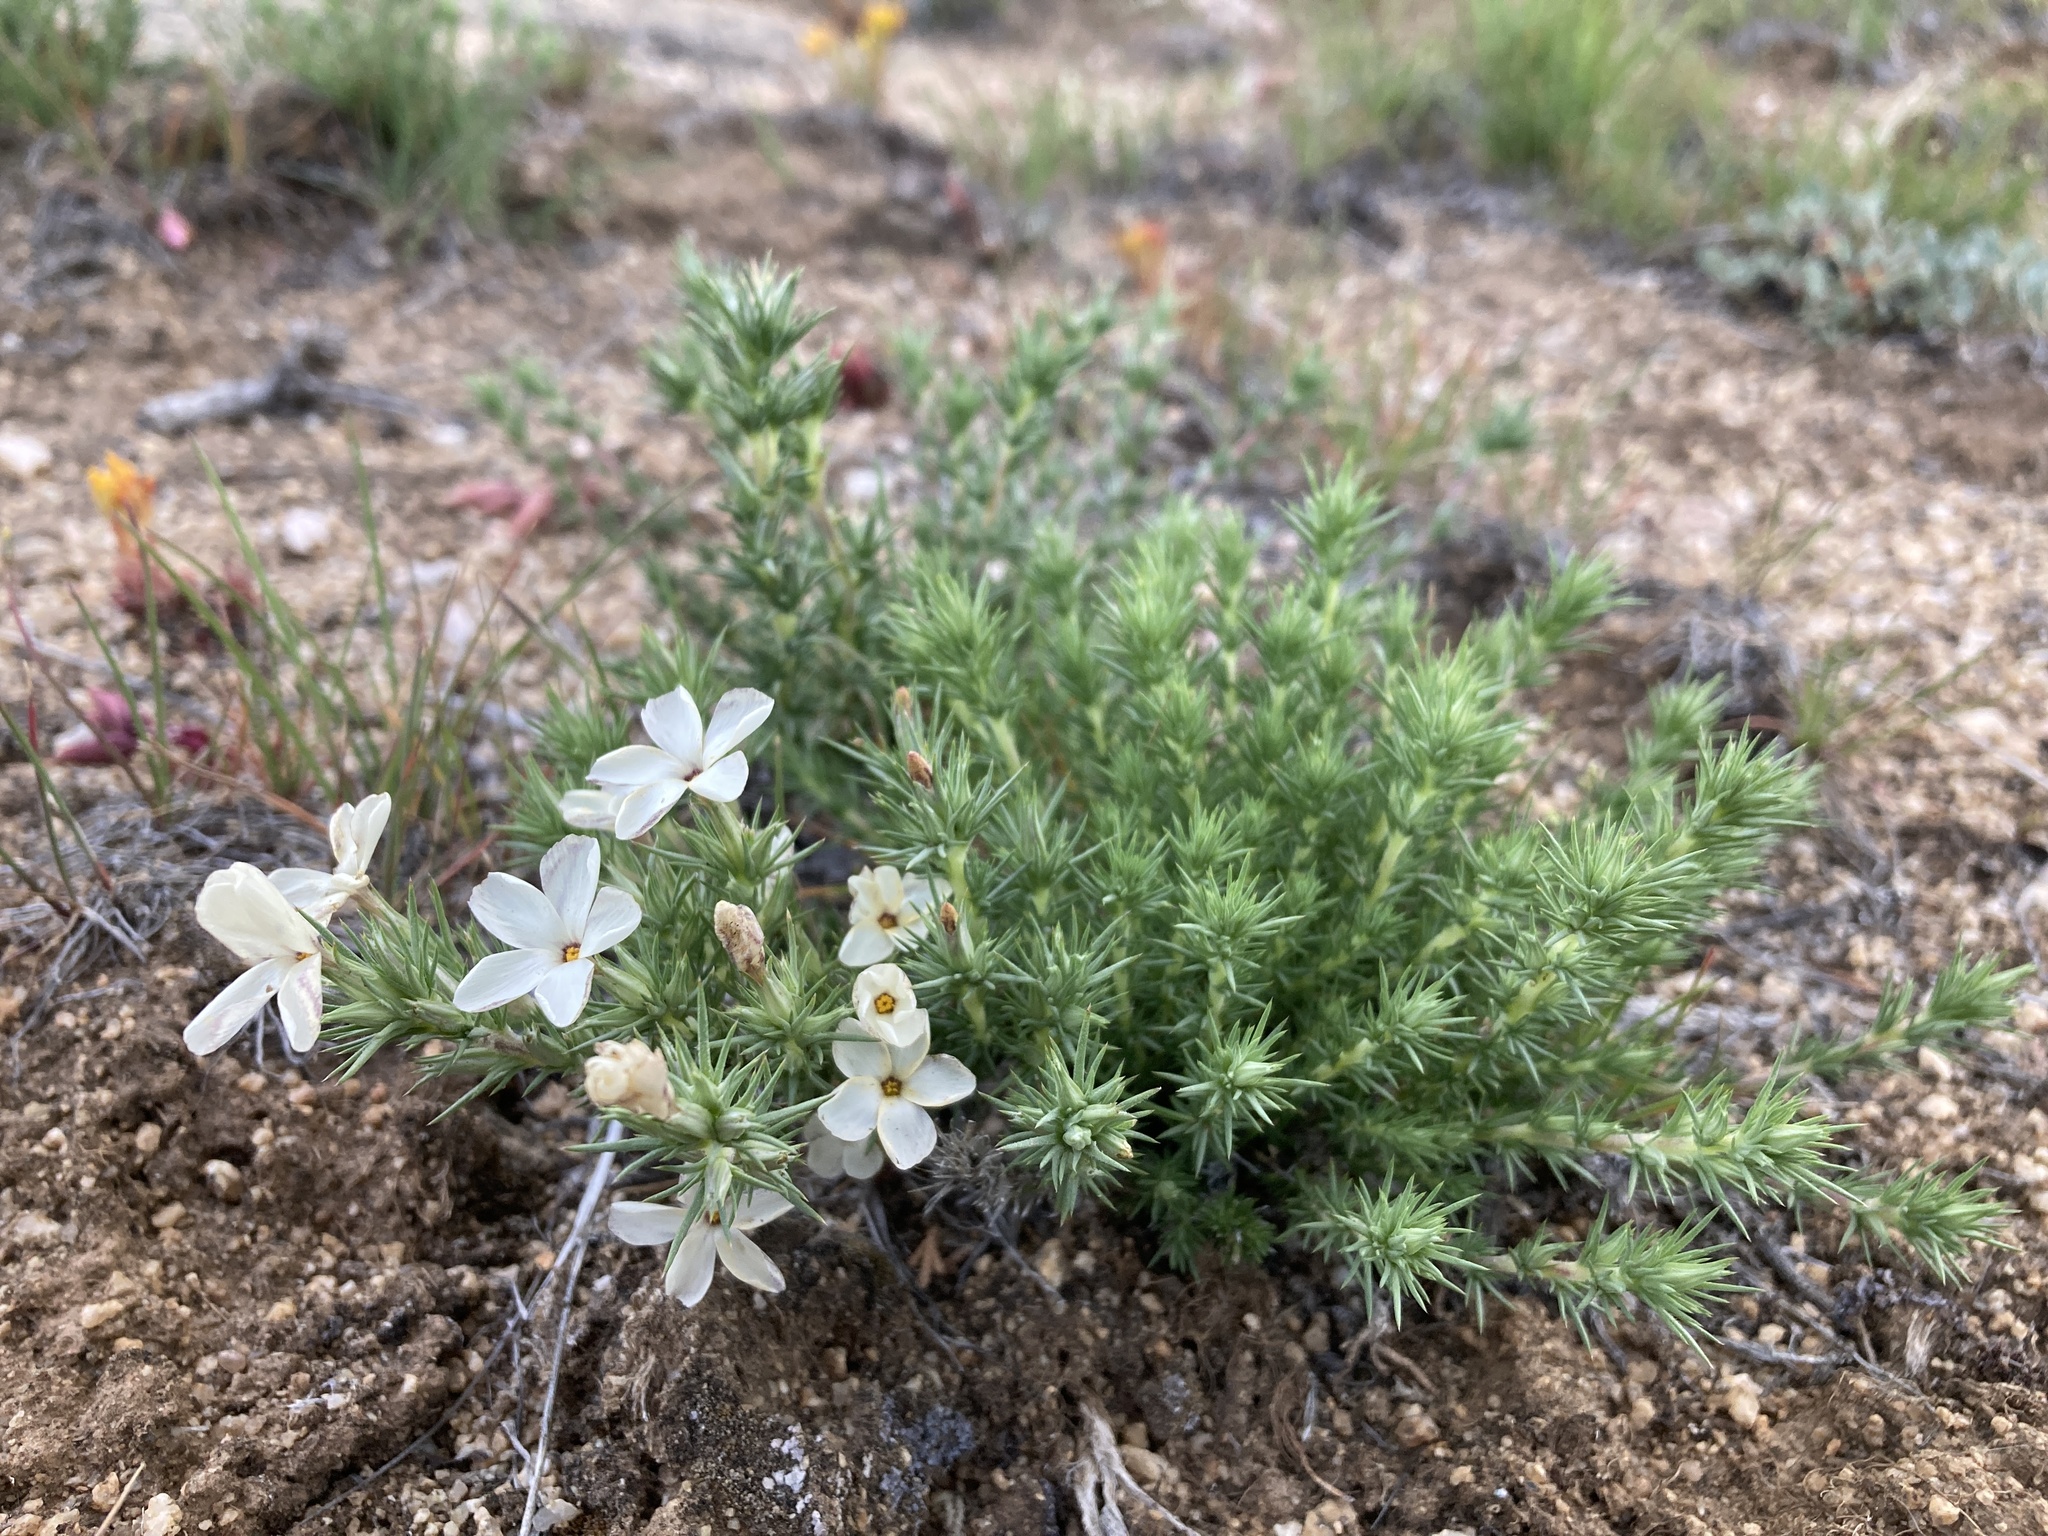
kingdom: Plantae
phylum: Tracheophyta
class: Magnoliopsida
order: Ericales
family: Polemoniaceae
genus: Linanthus
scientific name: Linanthus pungens
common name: Granite prickly phlox
